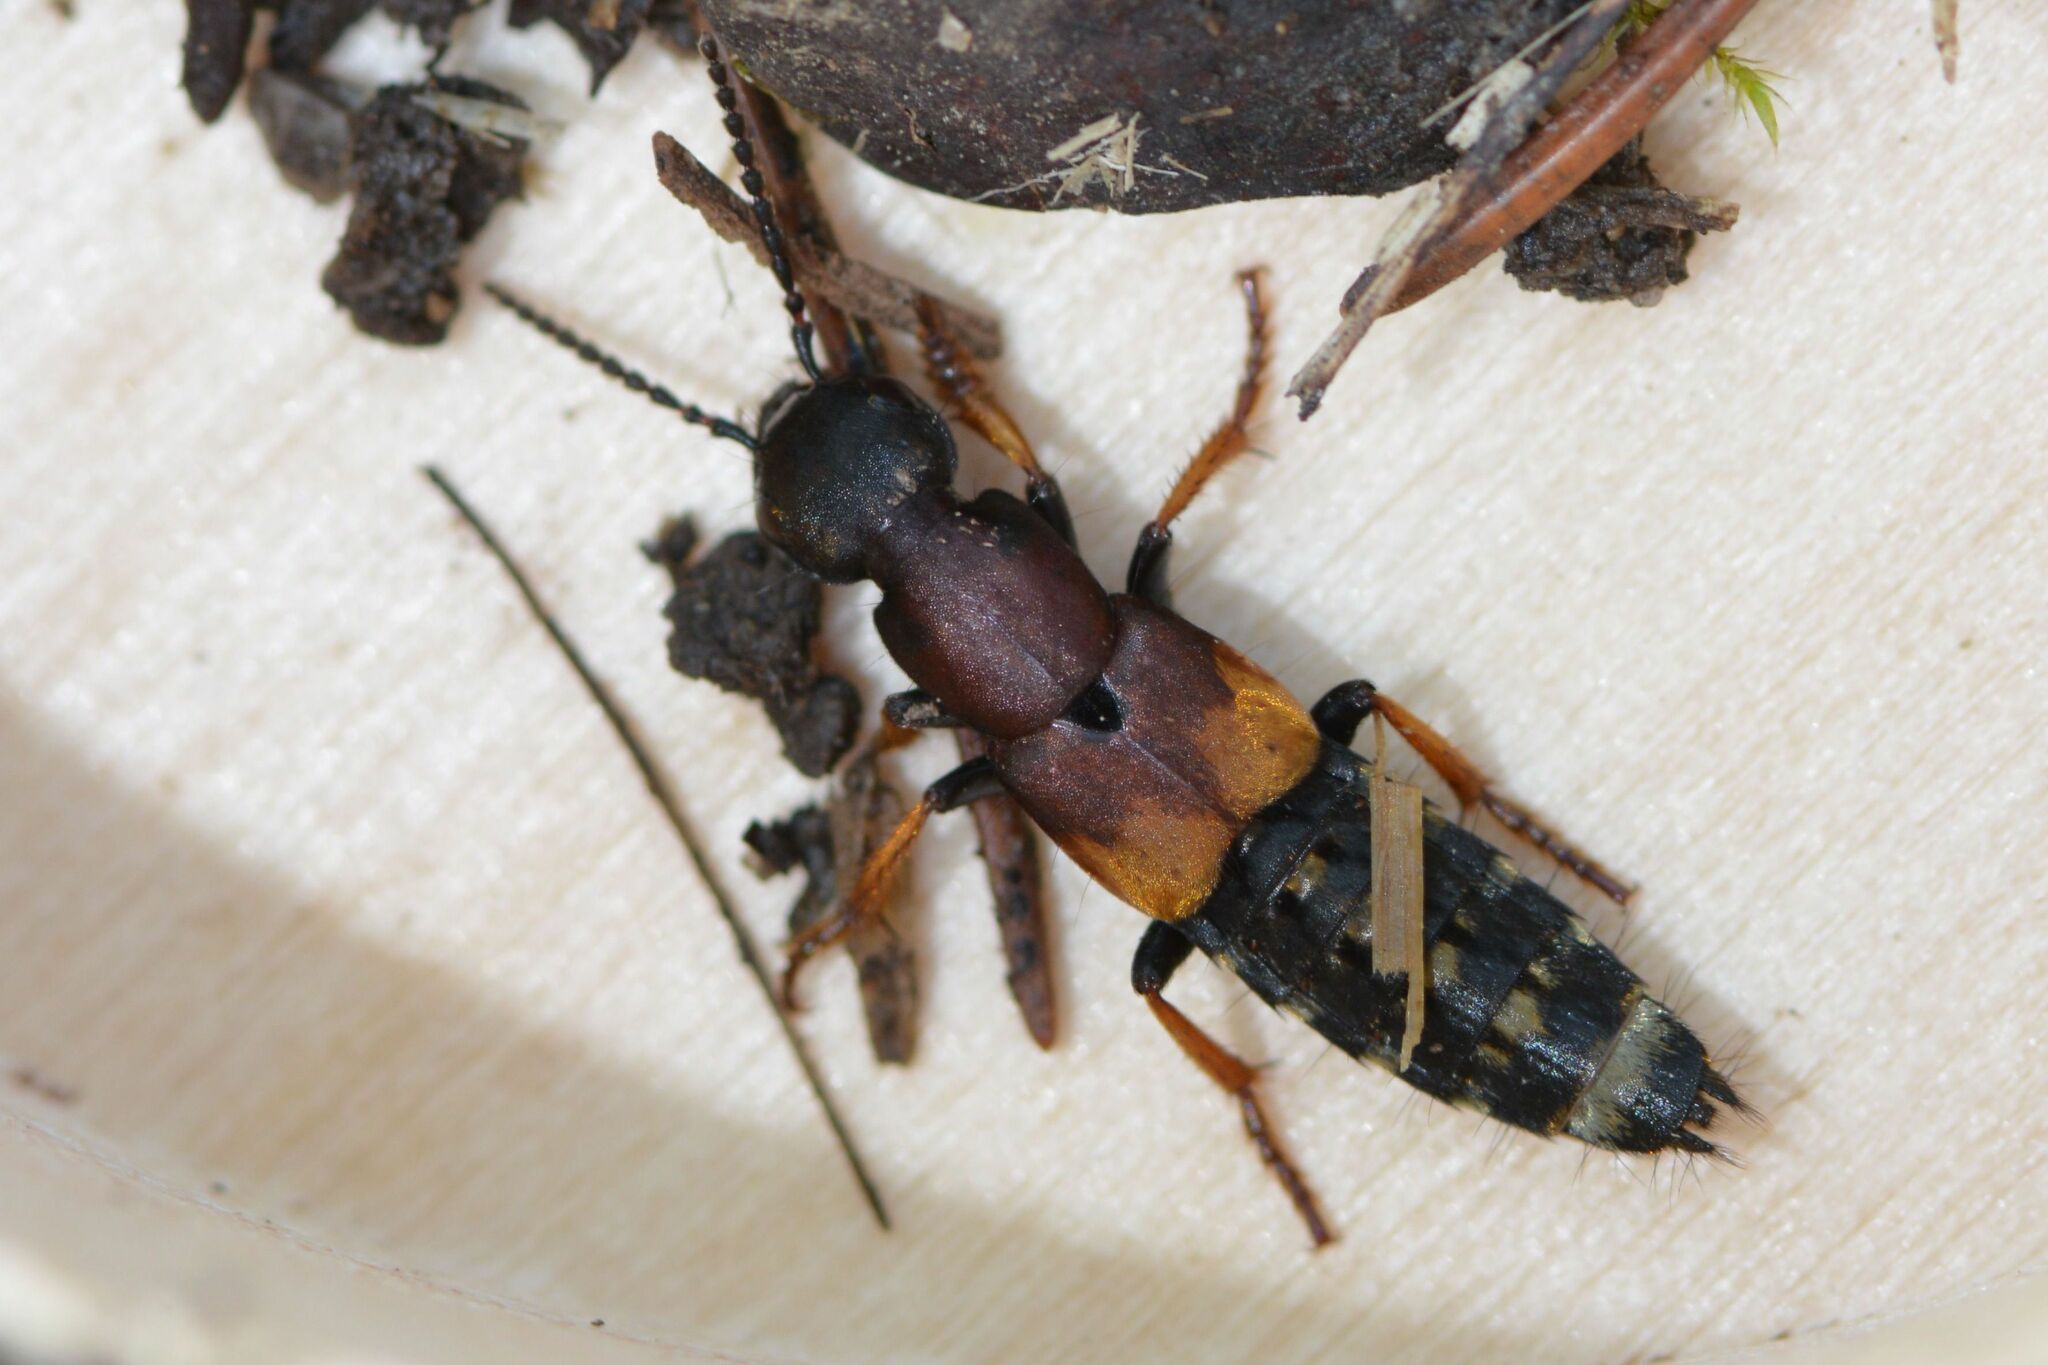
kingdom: Animalia
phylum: Arthropoda
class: Insecta
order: Coleoptera
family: Staphylinidae
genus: Dinothenarus
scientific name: Dinothenarus fossor
